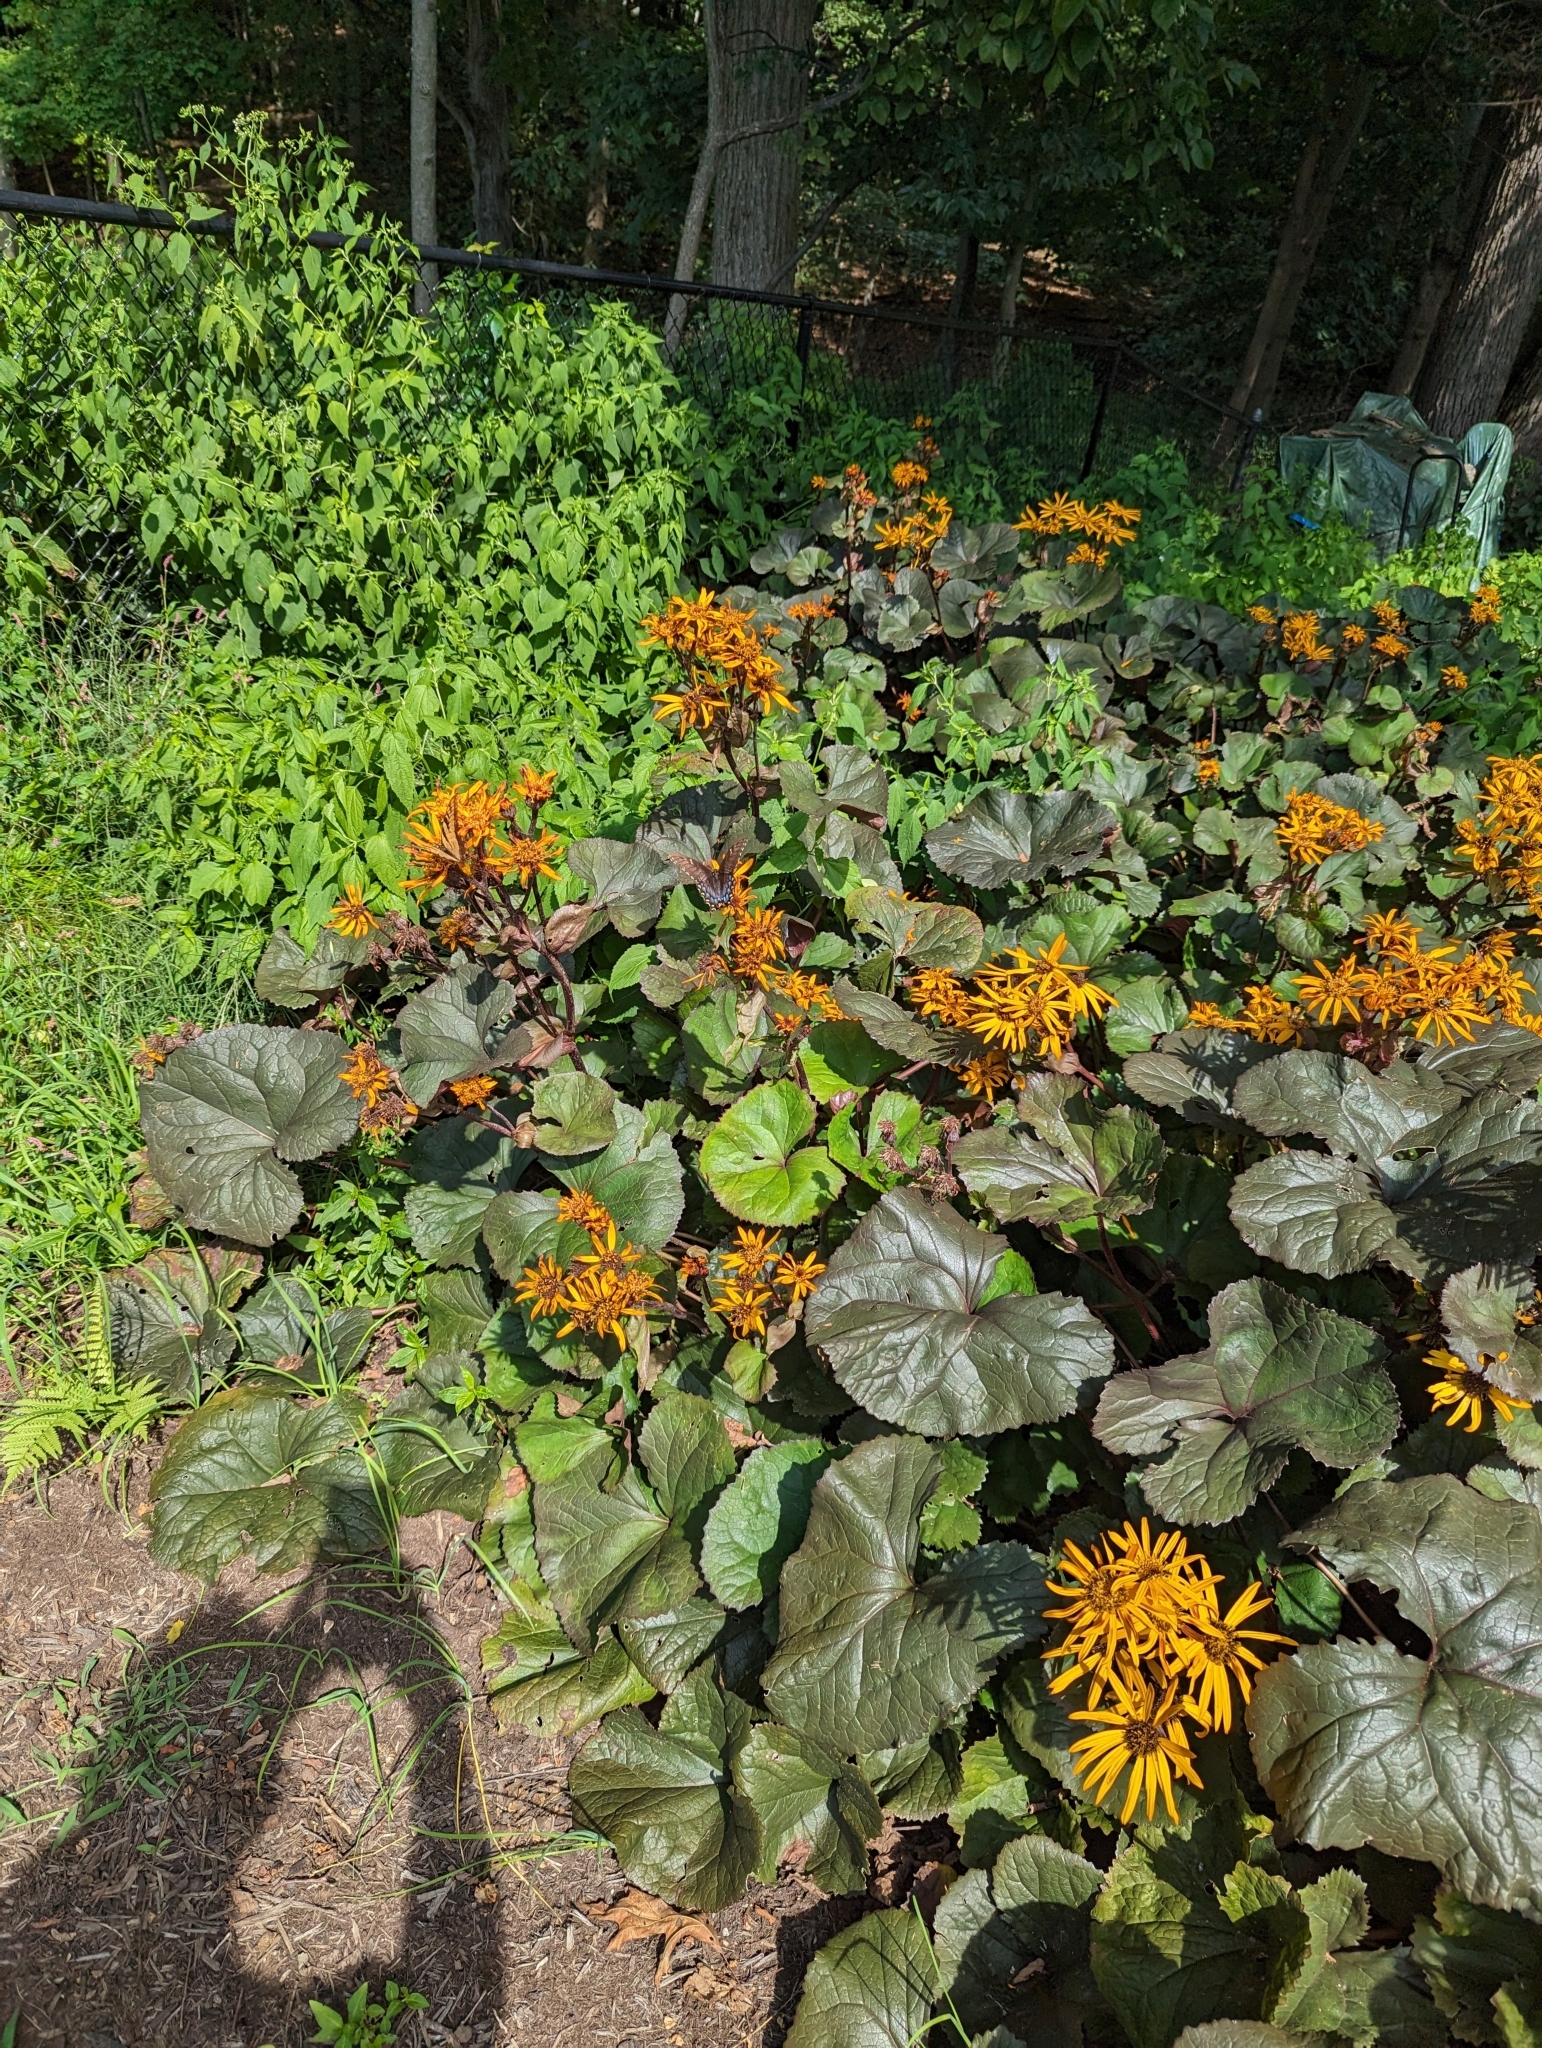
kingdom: Animalia
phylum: Arthropoda
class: Insecta
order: Lepidoptera
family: Papilionidae
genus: Papilio
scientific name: Papilio glaucus
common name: Tiger swallowtail
